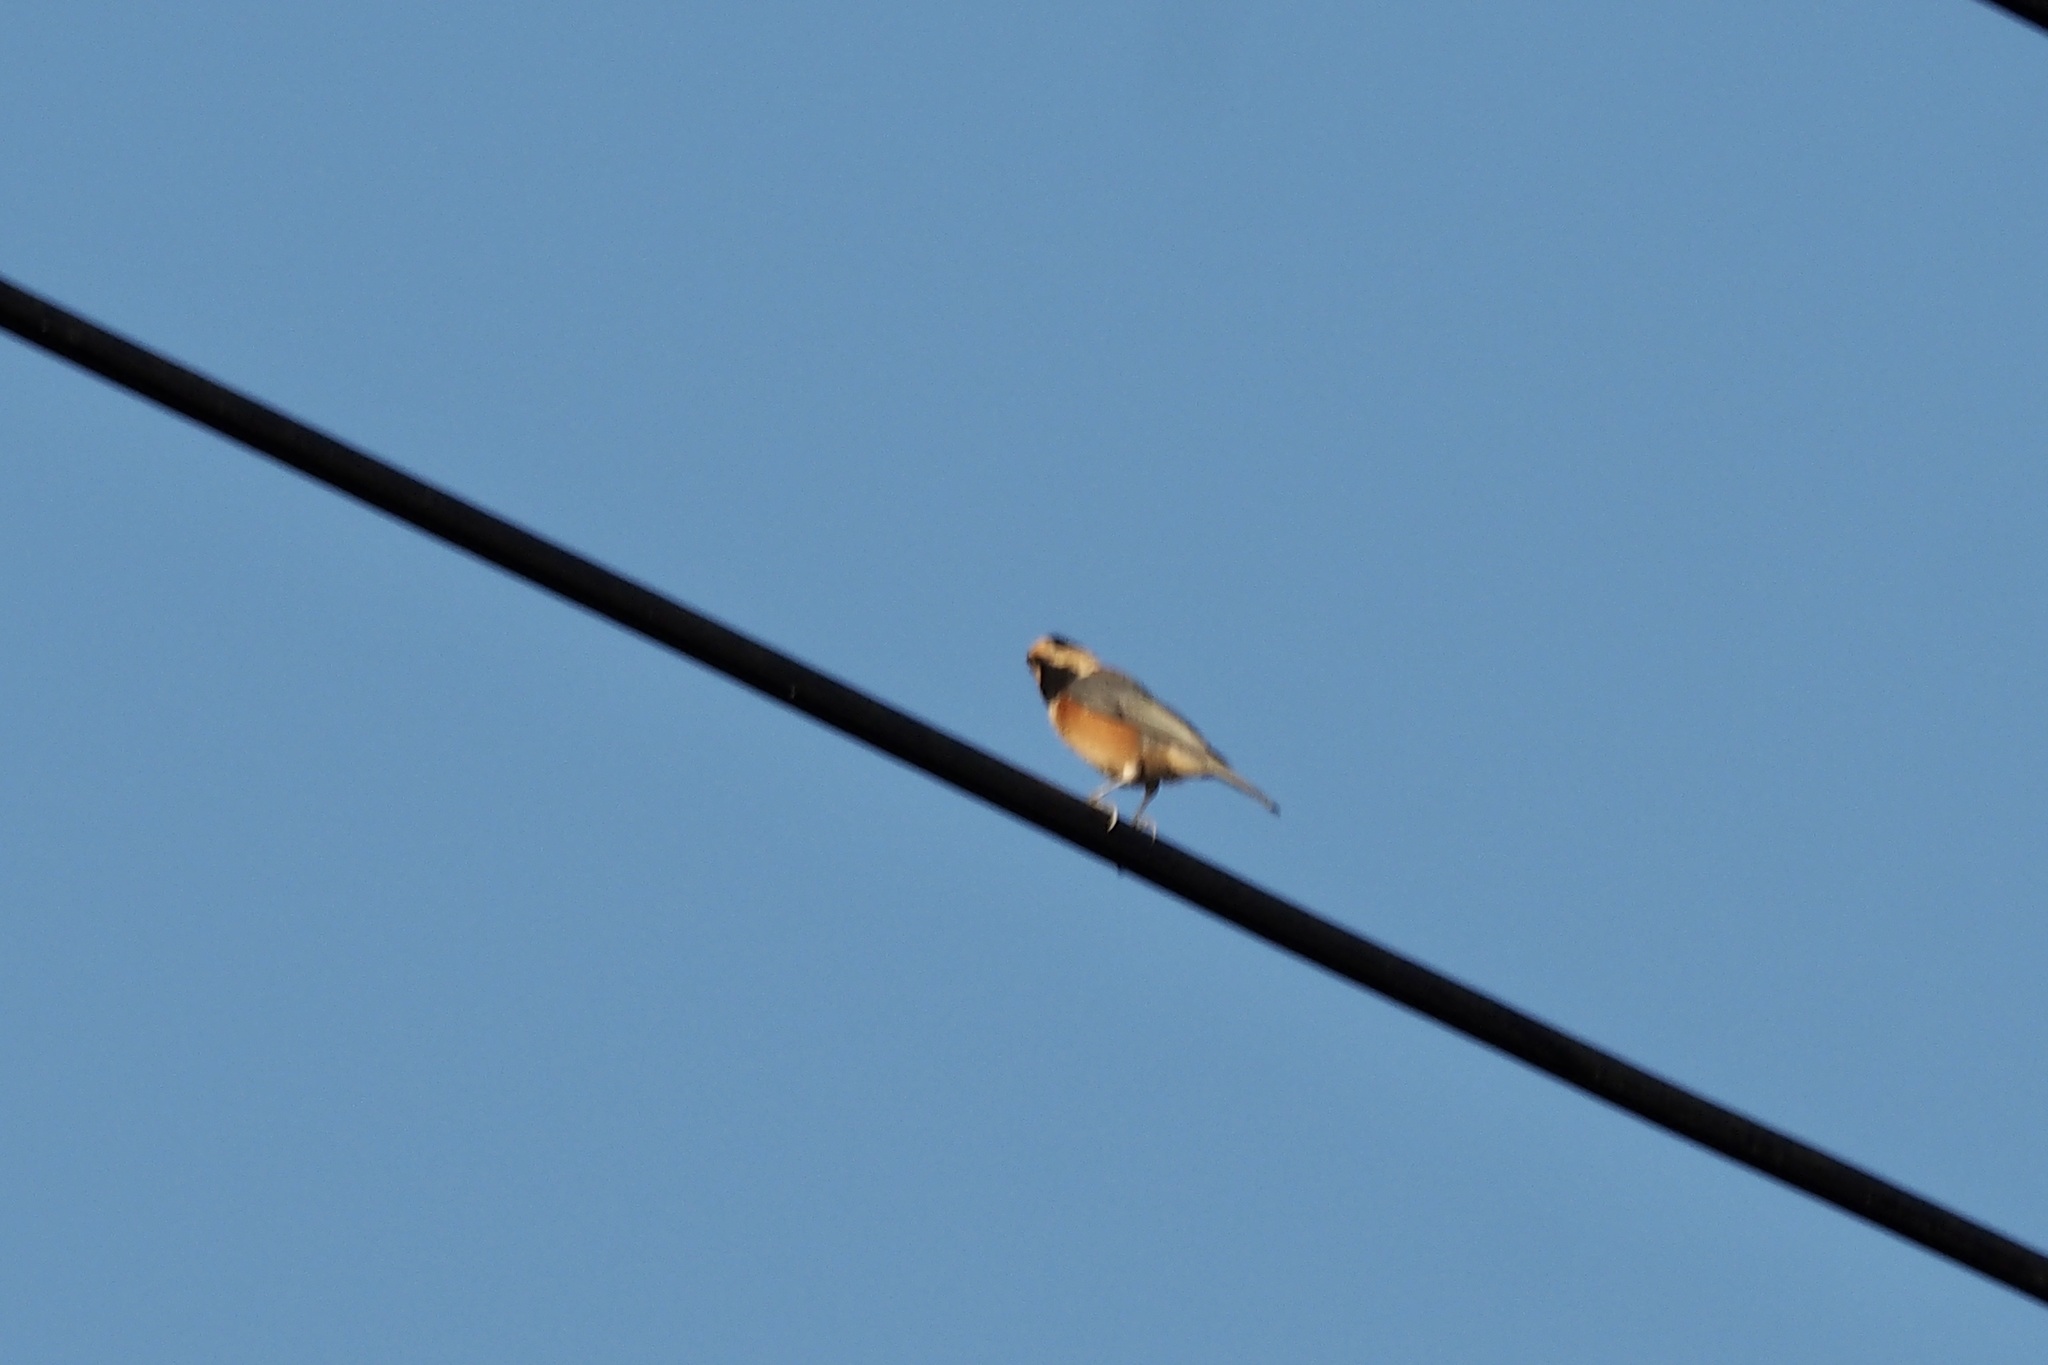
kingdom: Animalia
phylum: Chordata
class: Aves
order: Passeriformes
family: Paridae
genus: Poecile
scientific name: Poecile varius
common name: Varied tit
